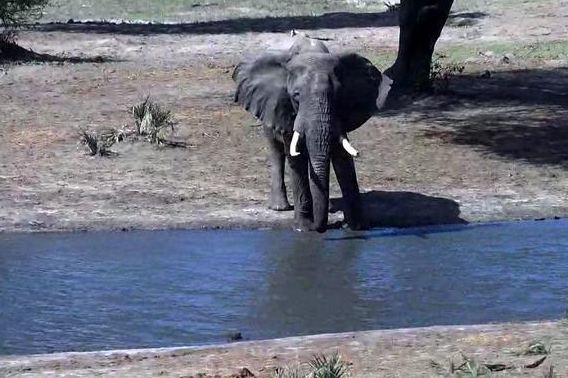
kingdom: Animalia
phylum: Chordata
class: Mammalia
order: Proboscidea
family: Elephantidae
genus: Loxodonta
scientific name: Loxodonta africana
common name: African elephant
